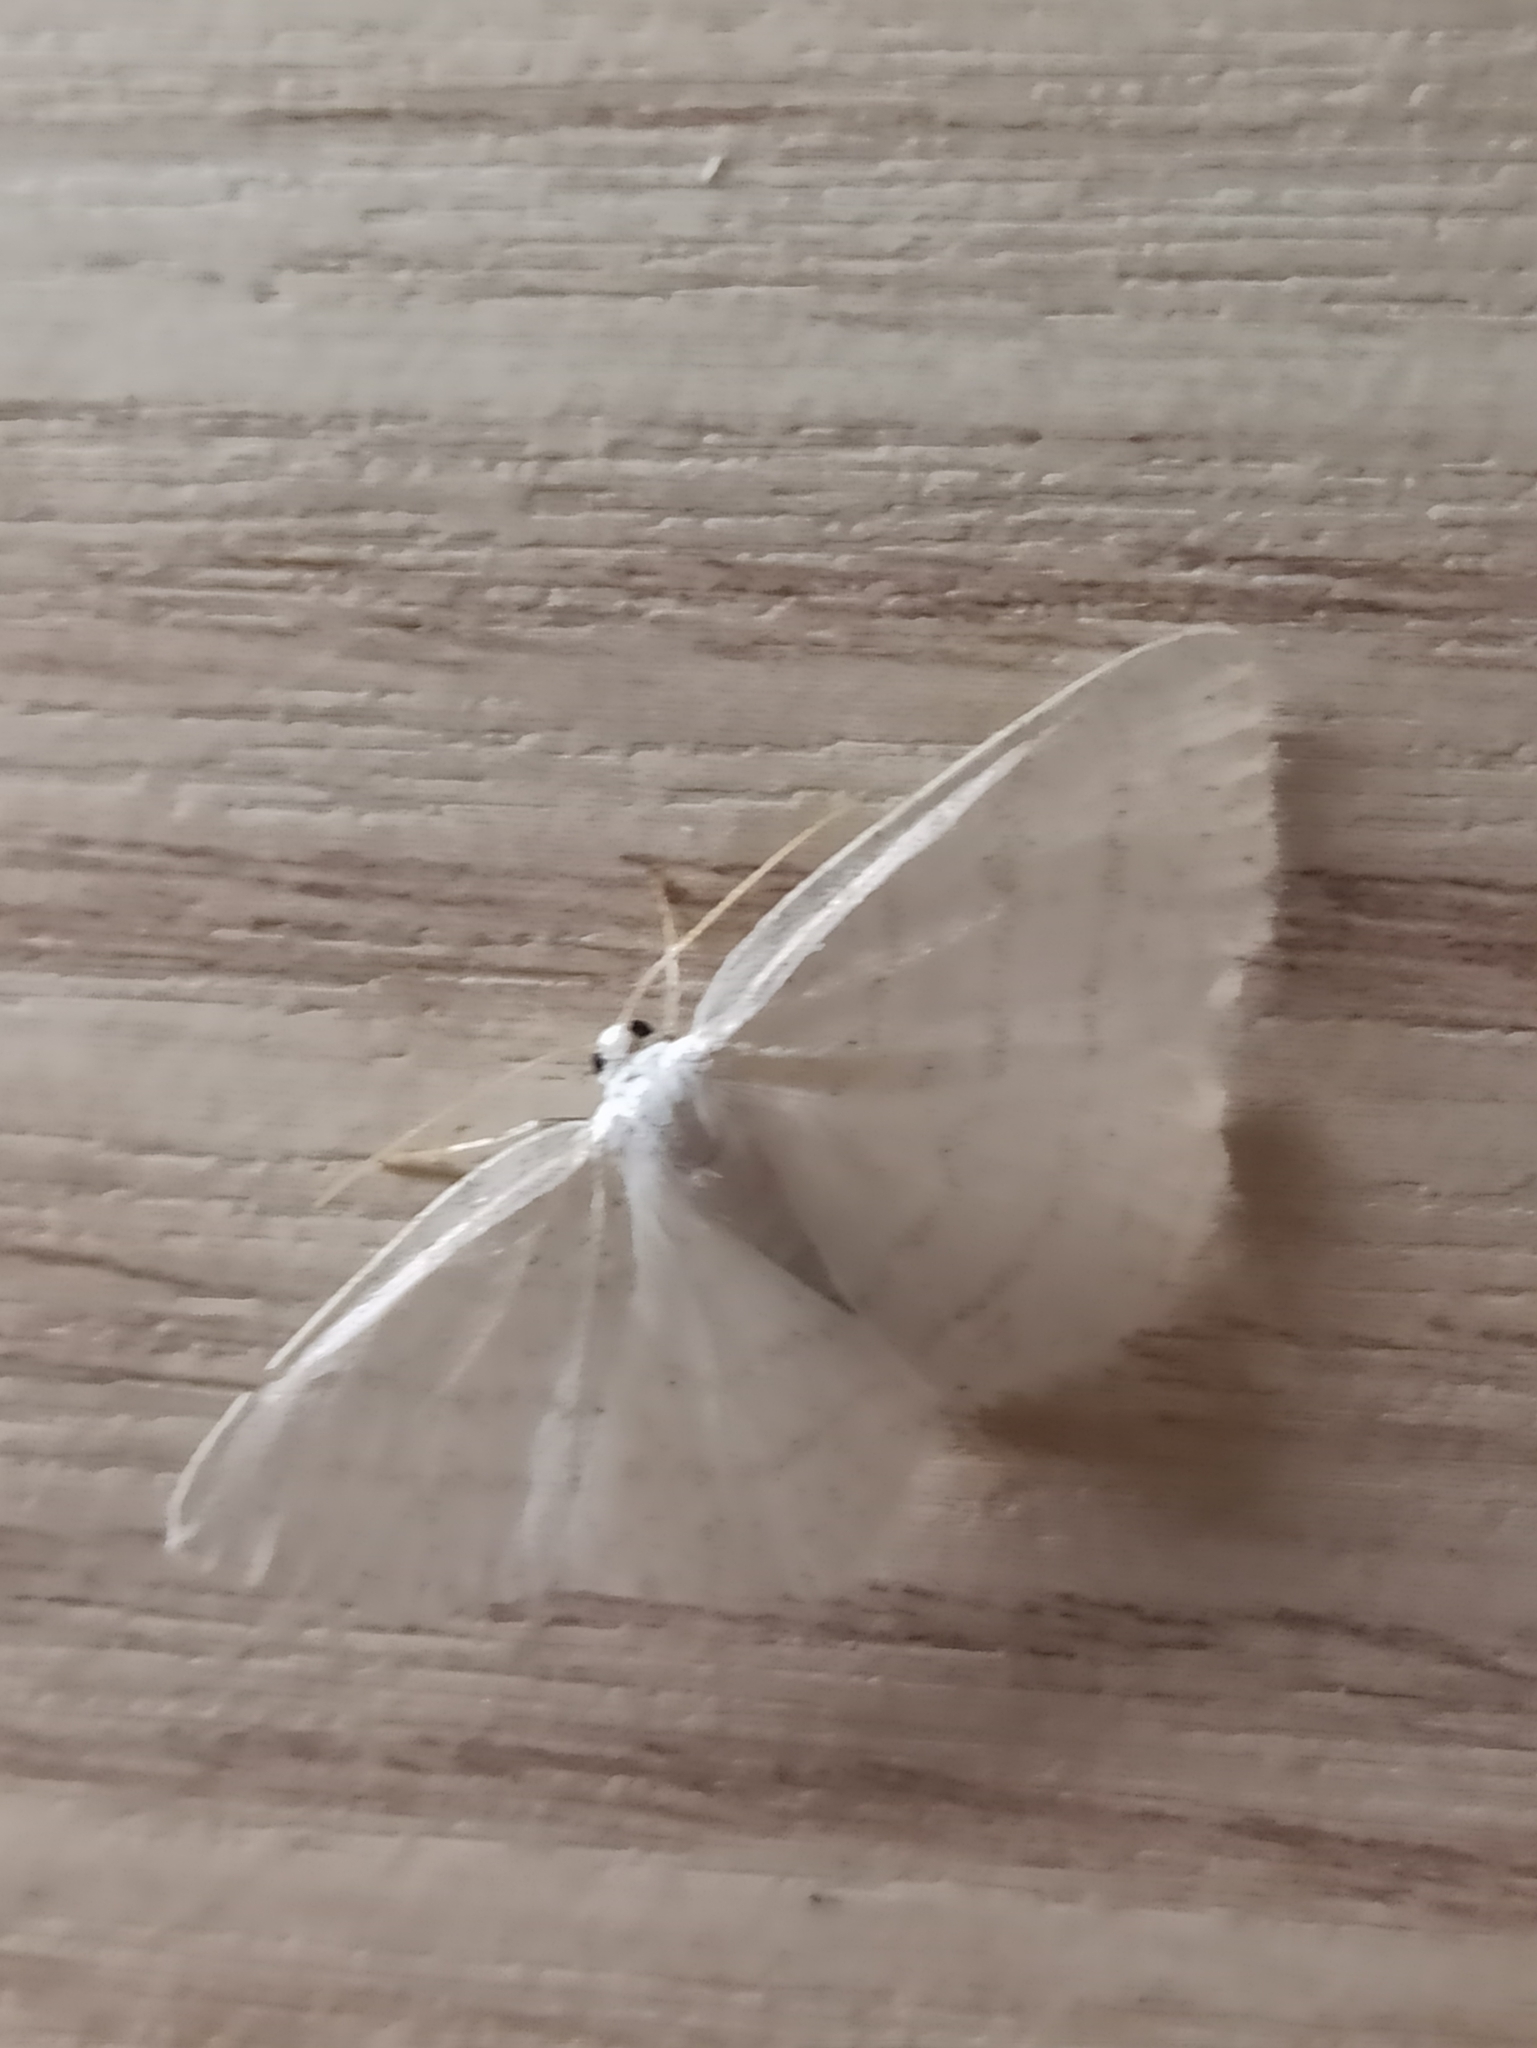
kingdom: Animalia
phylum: Arthropoda
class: Insecta
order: Lepidoptera
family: Geometridae
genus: Cabera
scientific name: Cabera pusaria
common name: Common white wave
